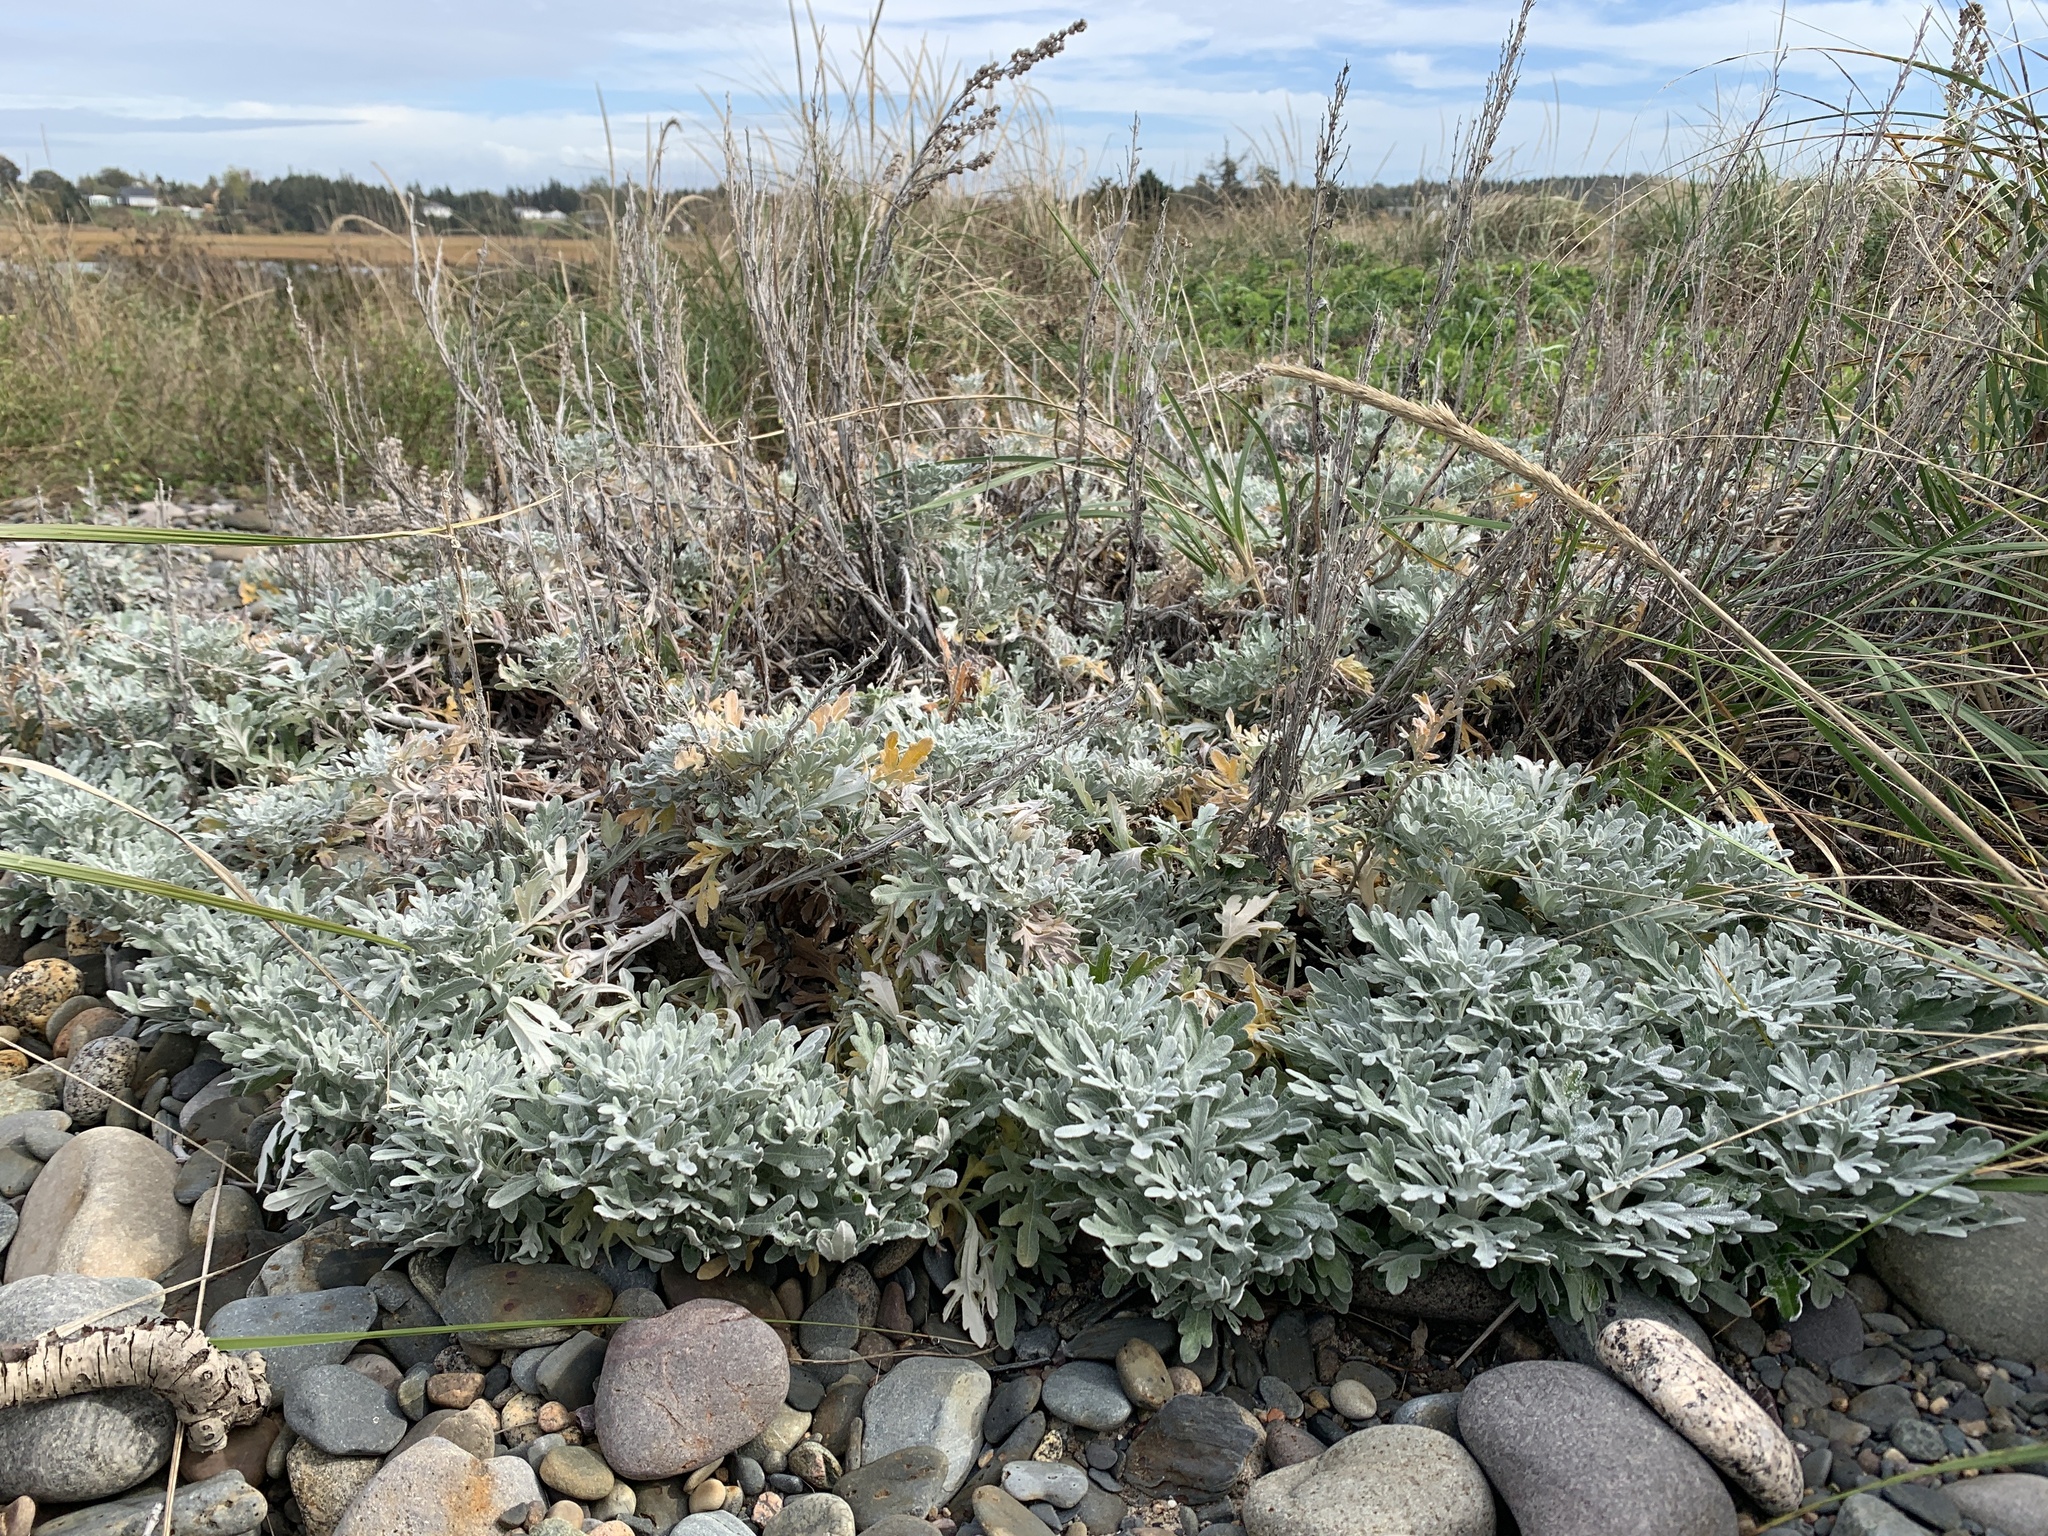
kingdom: Plantae
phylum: Tracheophyta
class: Magnoliopsida
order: Asterales
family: Asteraceae
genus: Artemisia
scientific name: Artemisia stelleriana
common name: Beach wormwood
